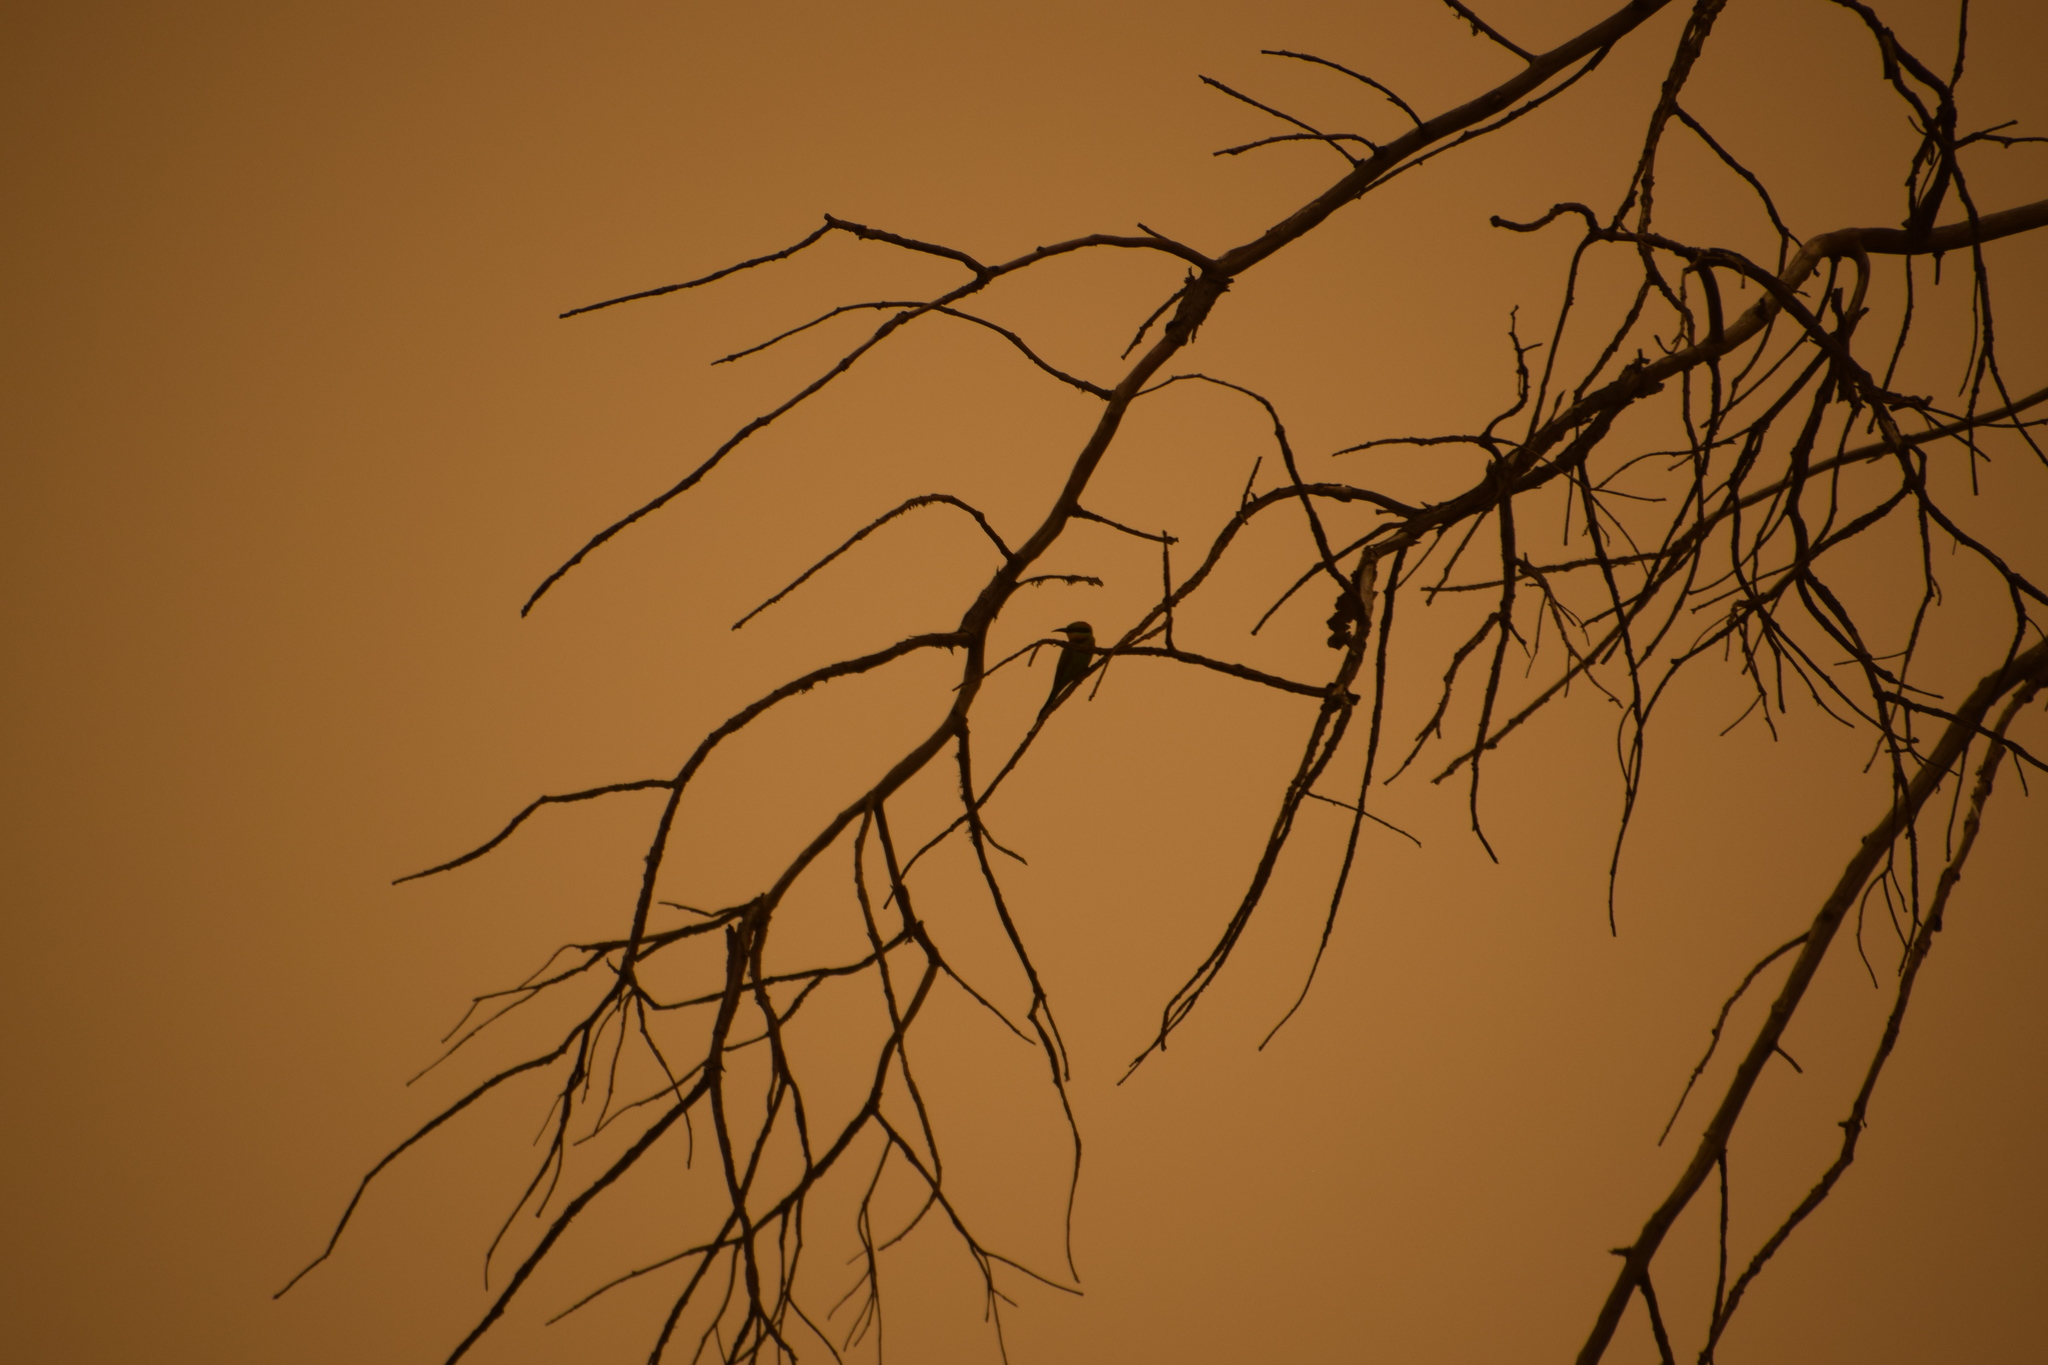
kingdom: Animalia
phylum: Chordata
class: Aves
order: Coraciiformes
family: Meropidae
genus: Merops
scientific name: Merops ornatus
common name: Rainbow bee-eater
